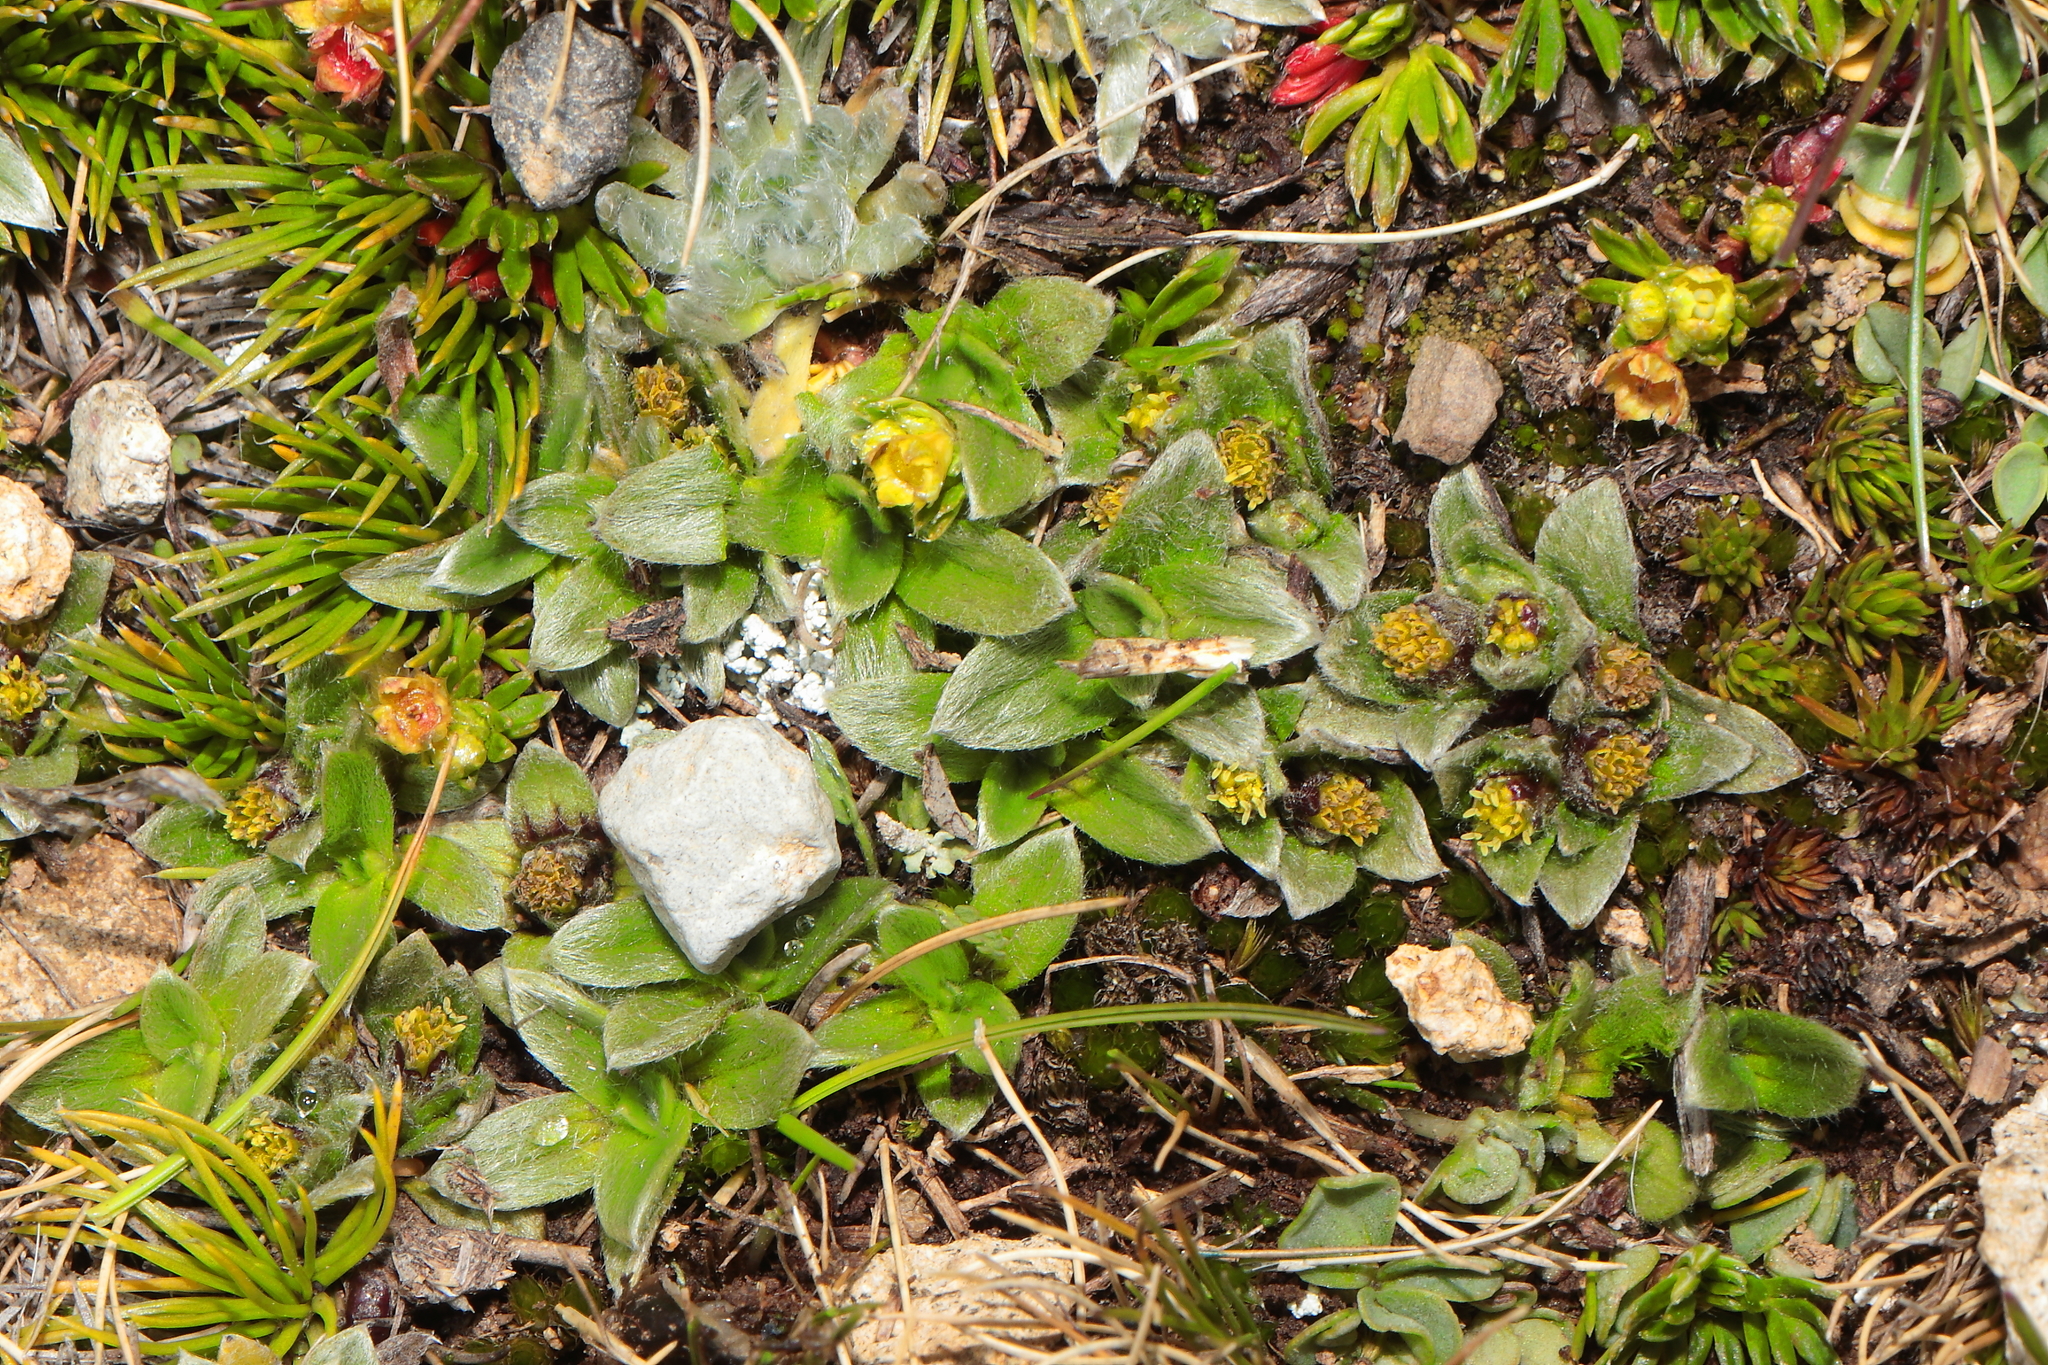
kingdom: Plantae
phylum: Tracheophyta
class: Magnoliopsida
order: Asterales
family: Asteraceae
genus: Aphanactis
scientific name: Aphanactis villosa
